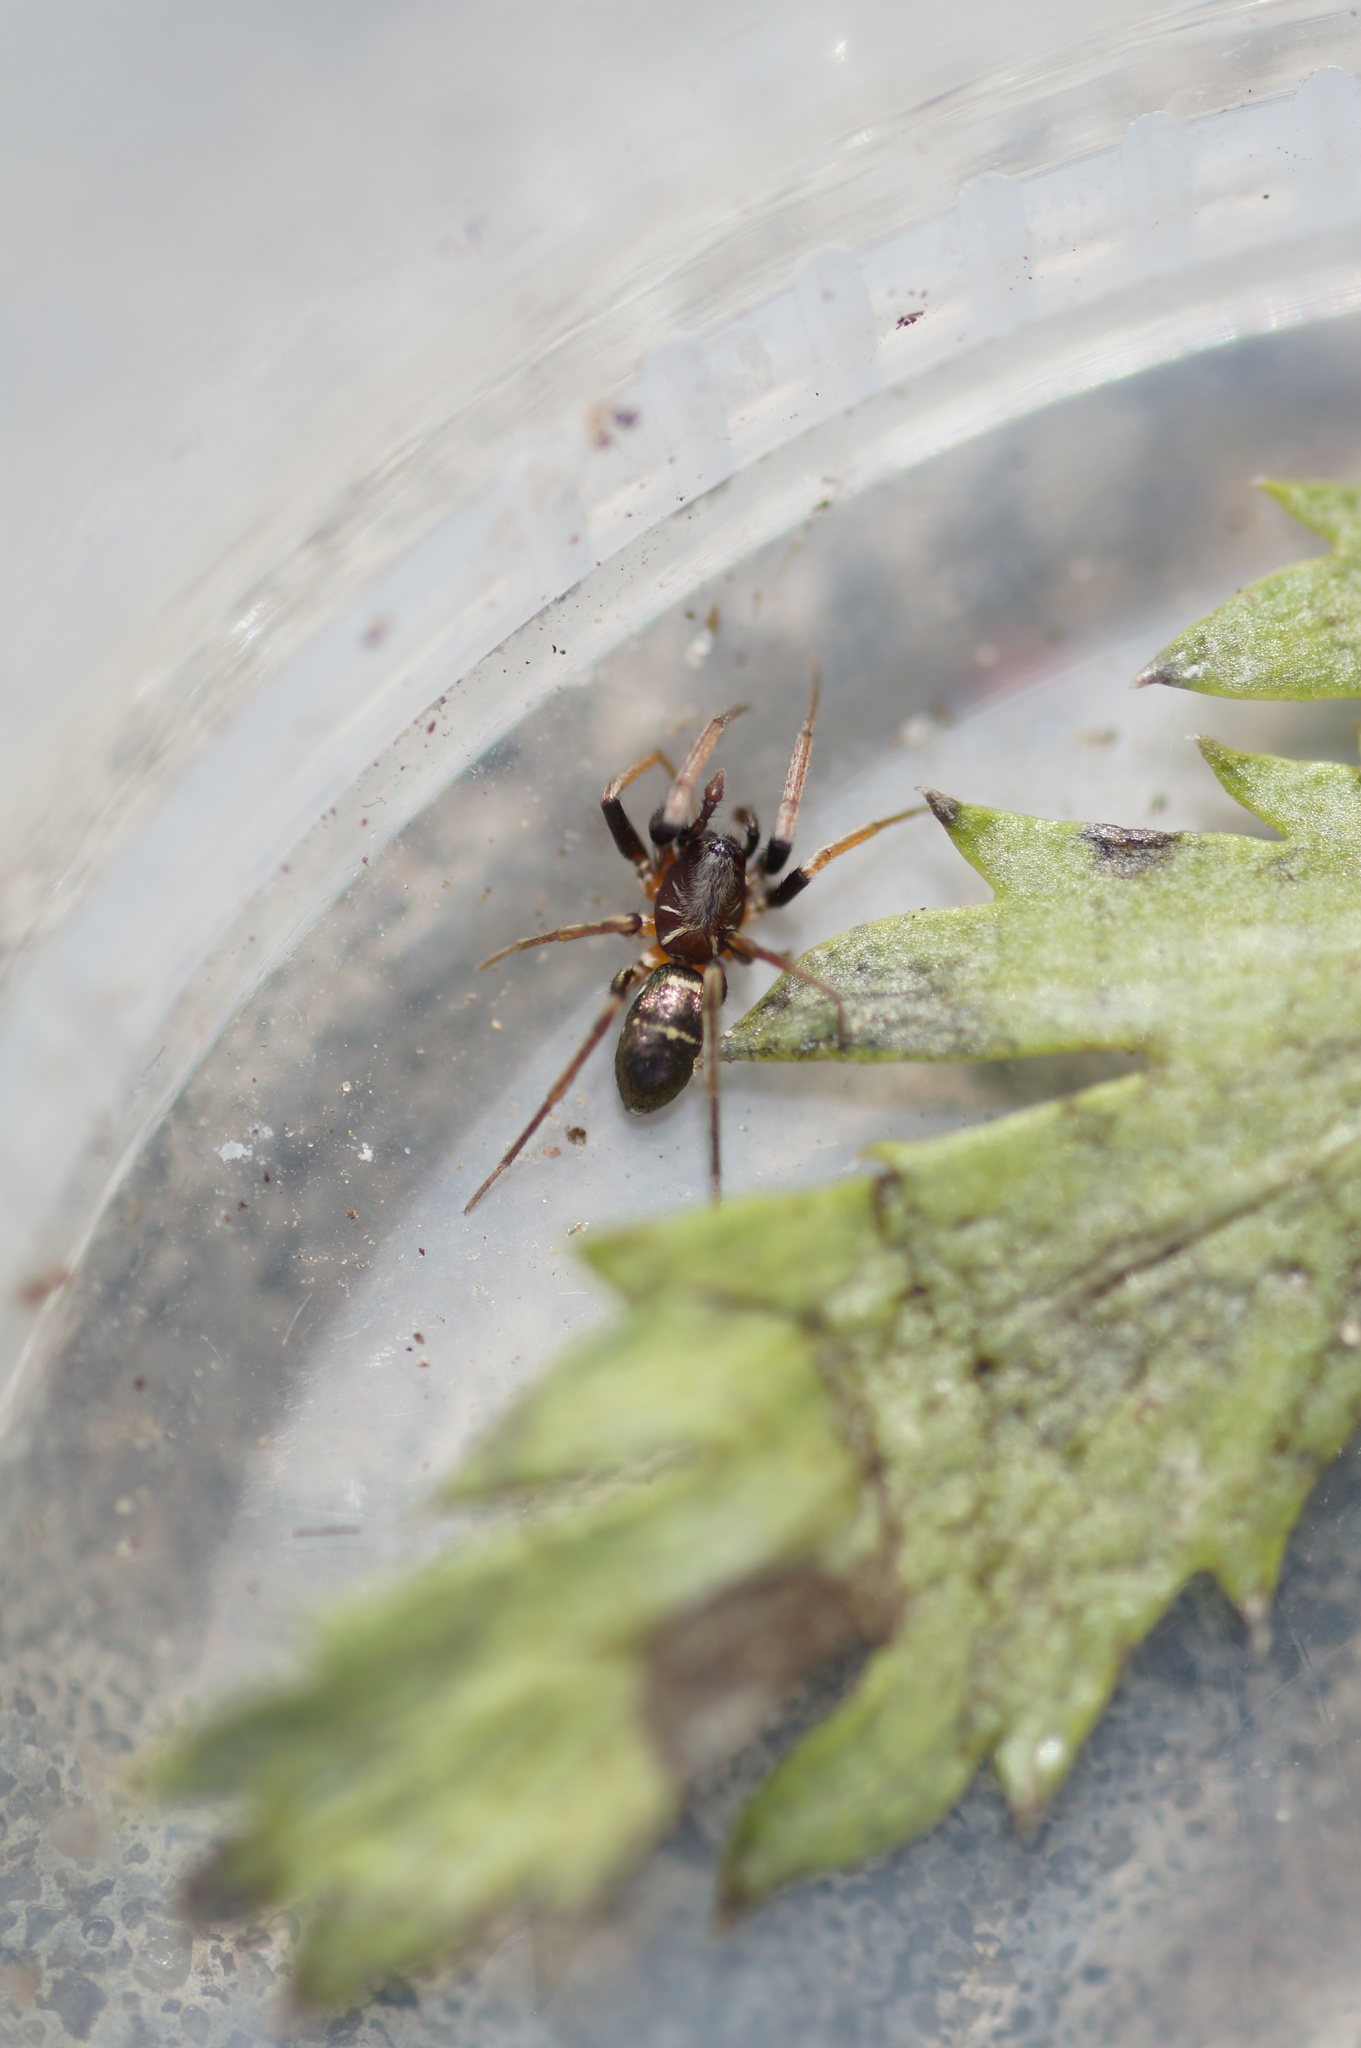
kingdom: Animalia
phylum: Arthropoda
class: Arachnida
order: Araneae
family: Gnaphosidae
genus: Micaria
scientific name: Micaria micans
